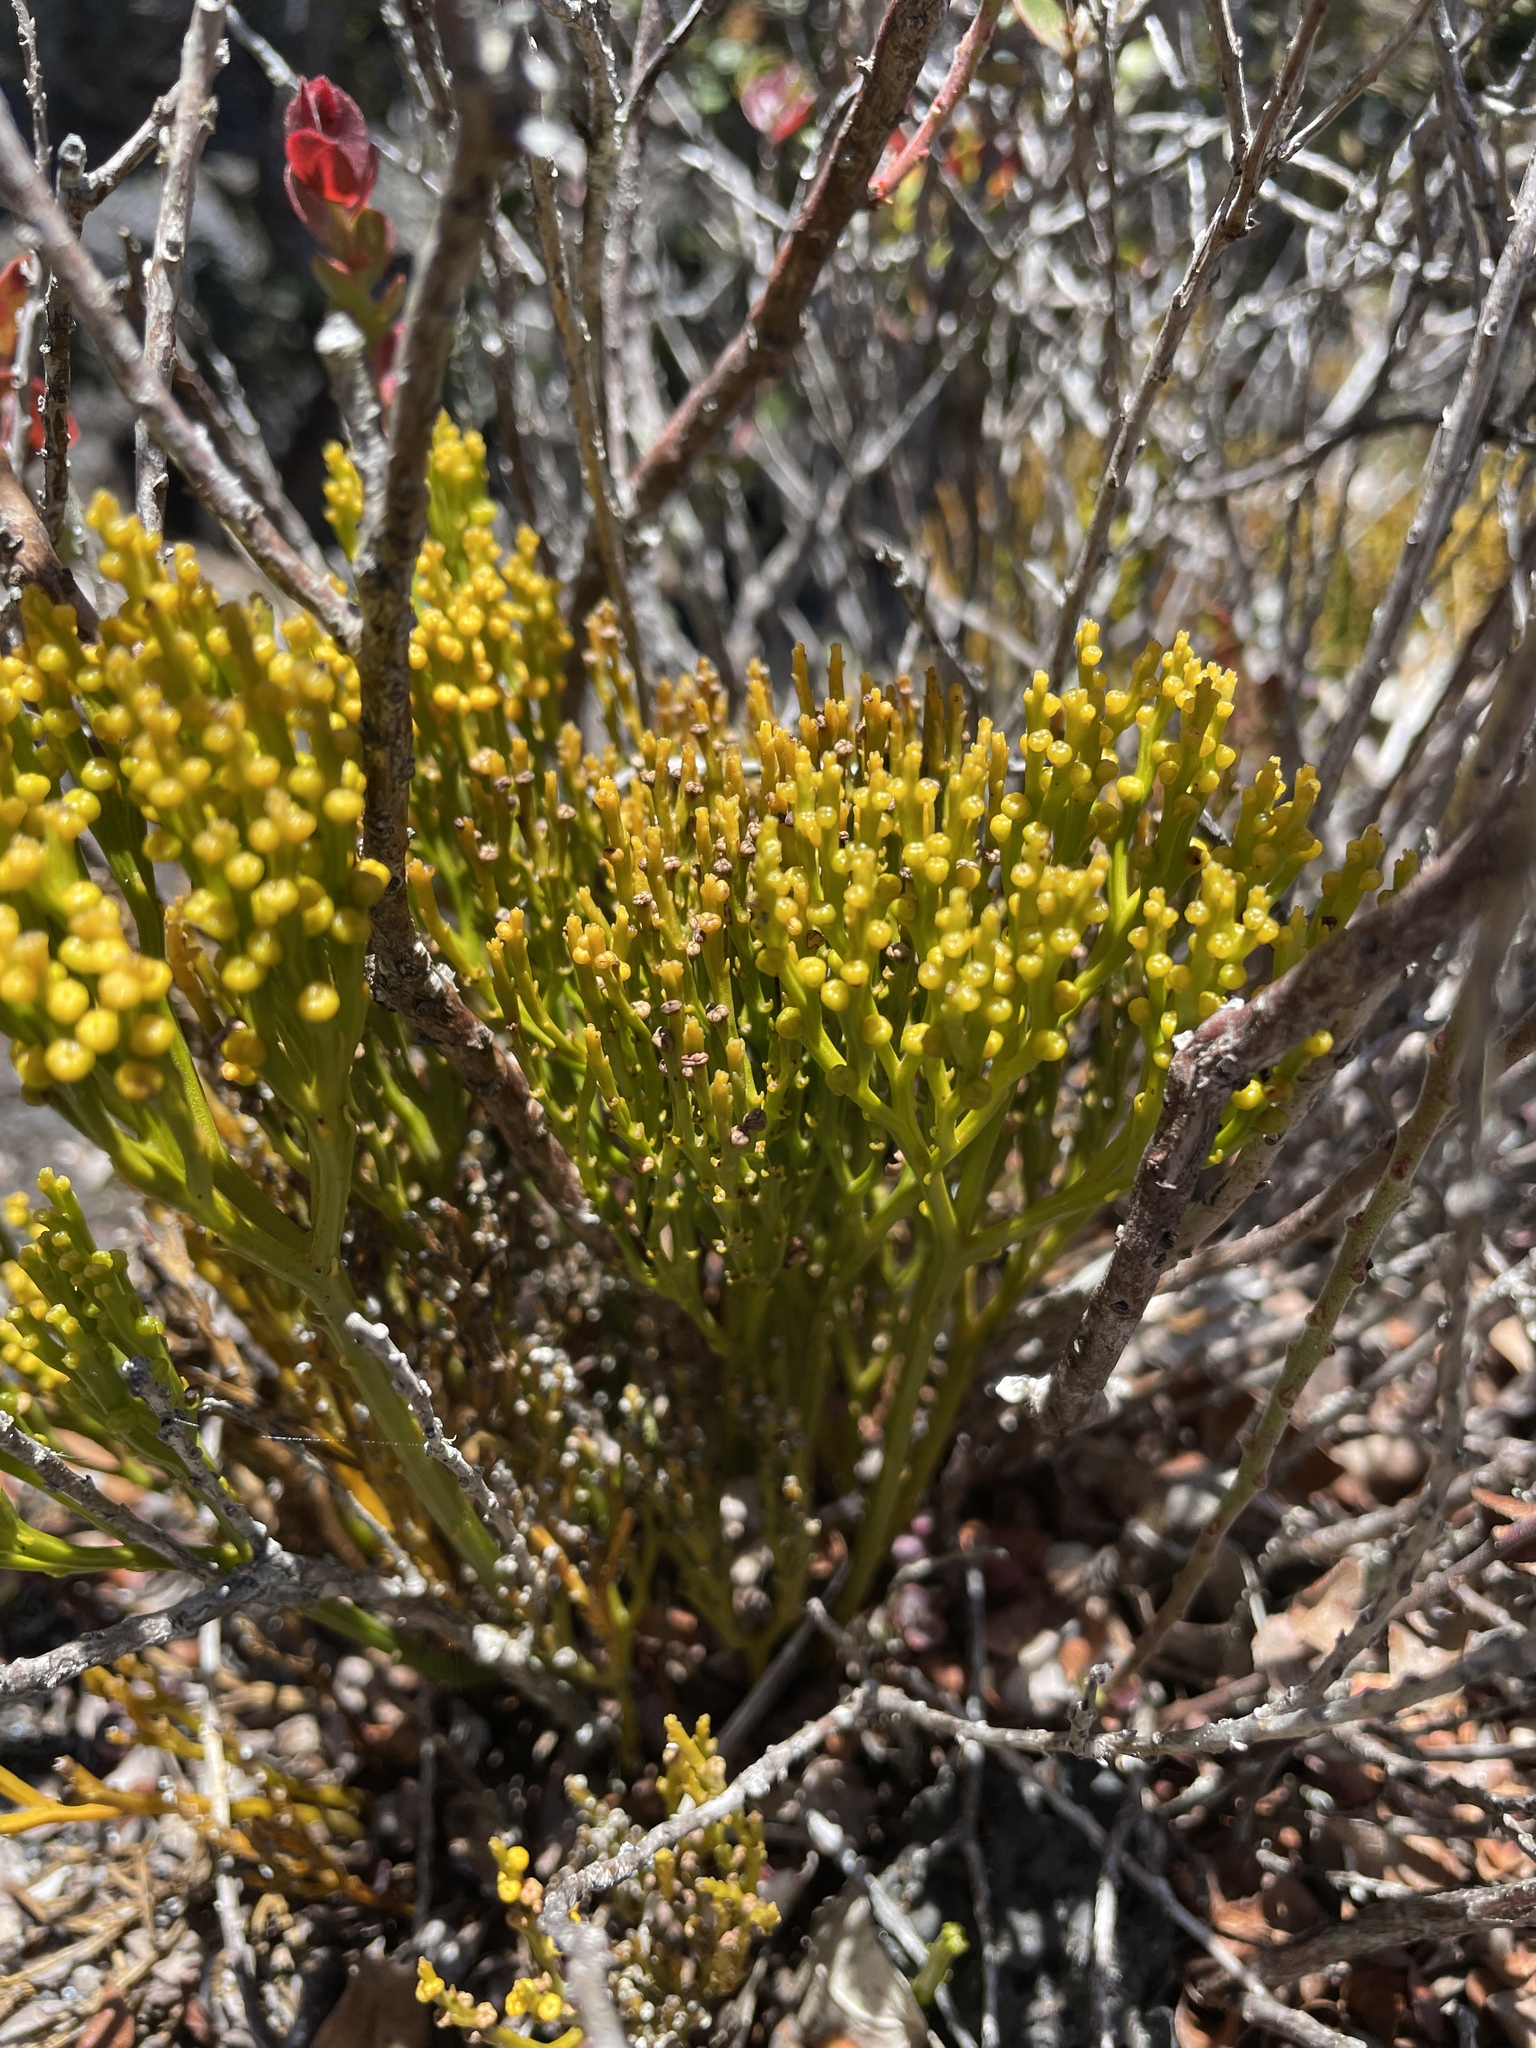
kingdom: Plantae
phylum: Tracheophyta
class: Polypodiopsida
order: Psilotales
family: Psilotaceae
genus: Psilotum
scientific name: Psilotum nudum
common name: Skeleton fork fern
